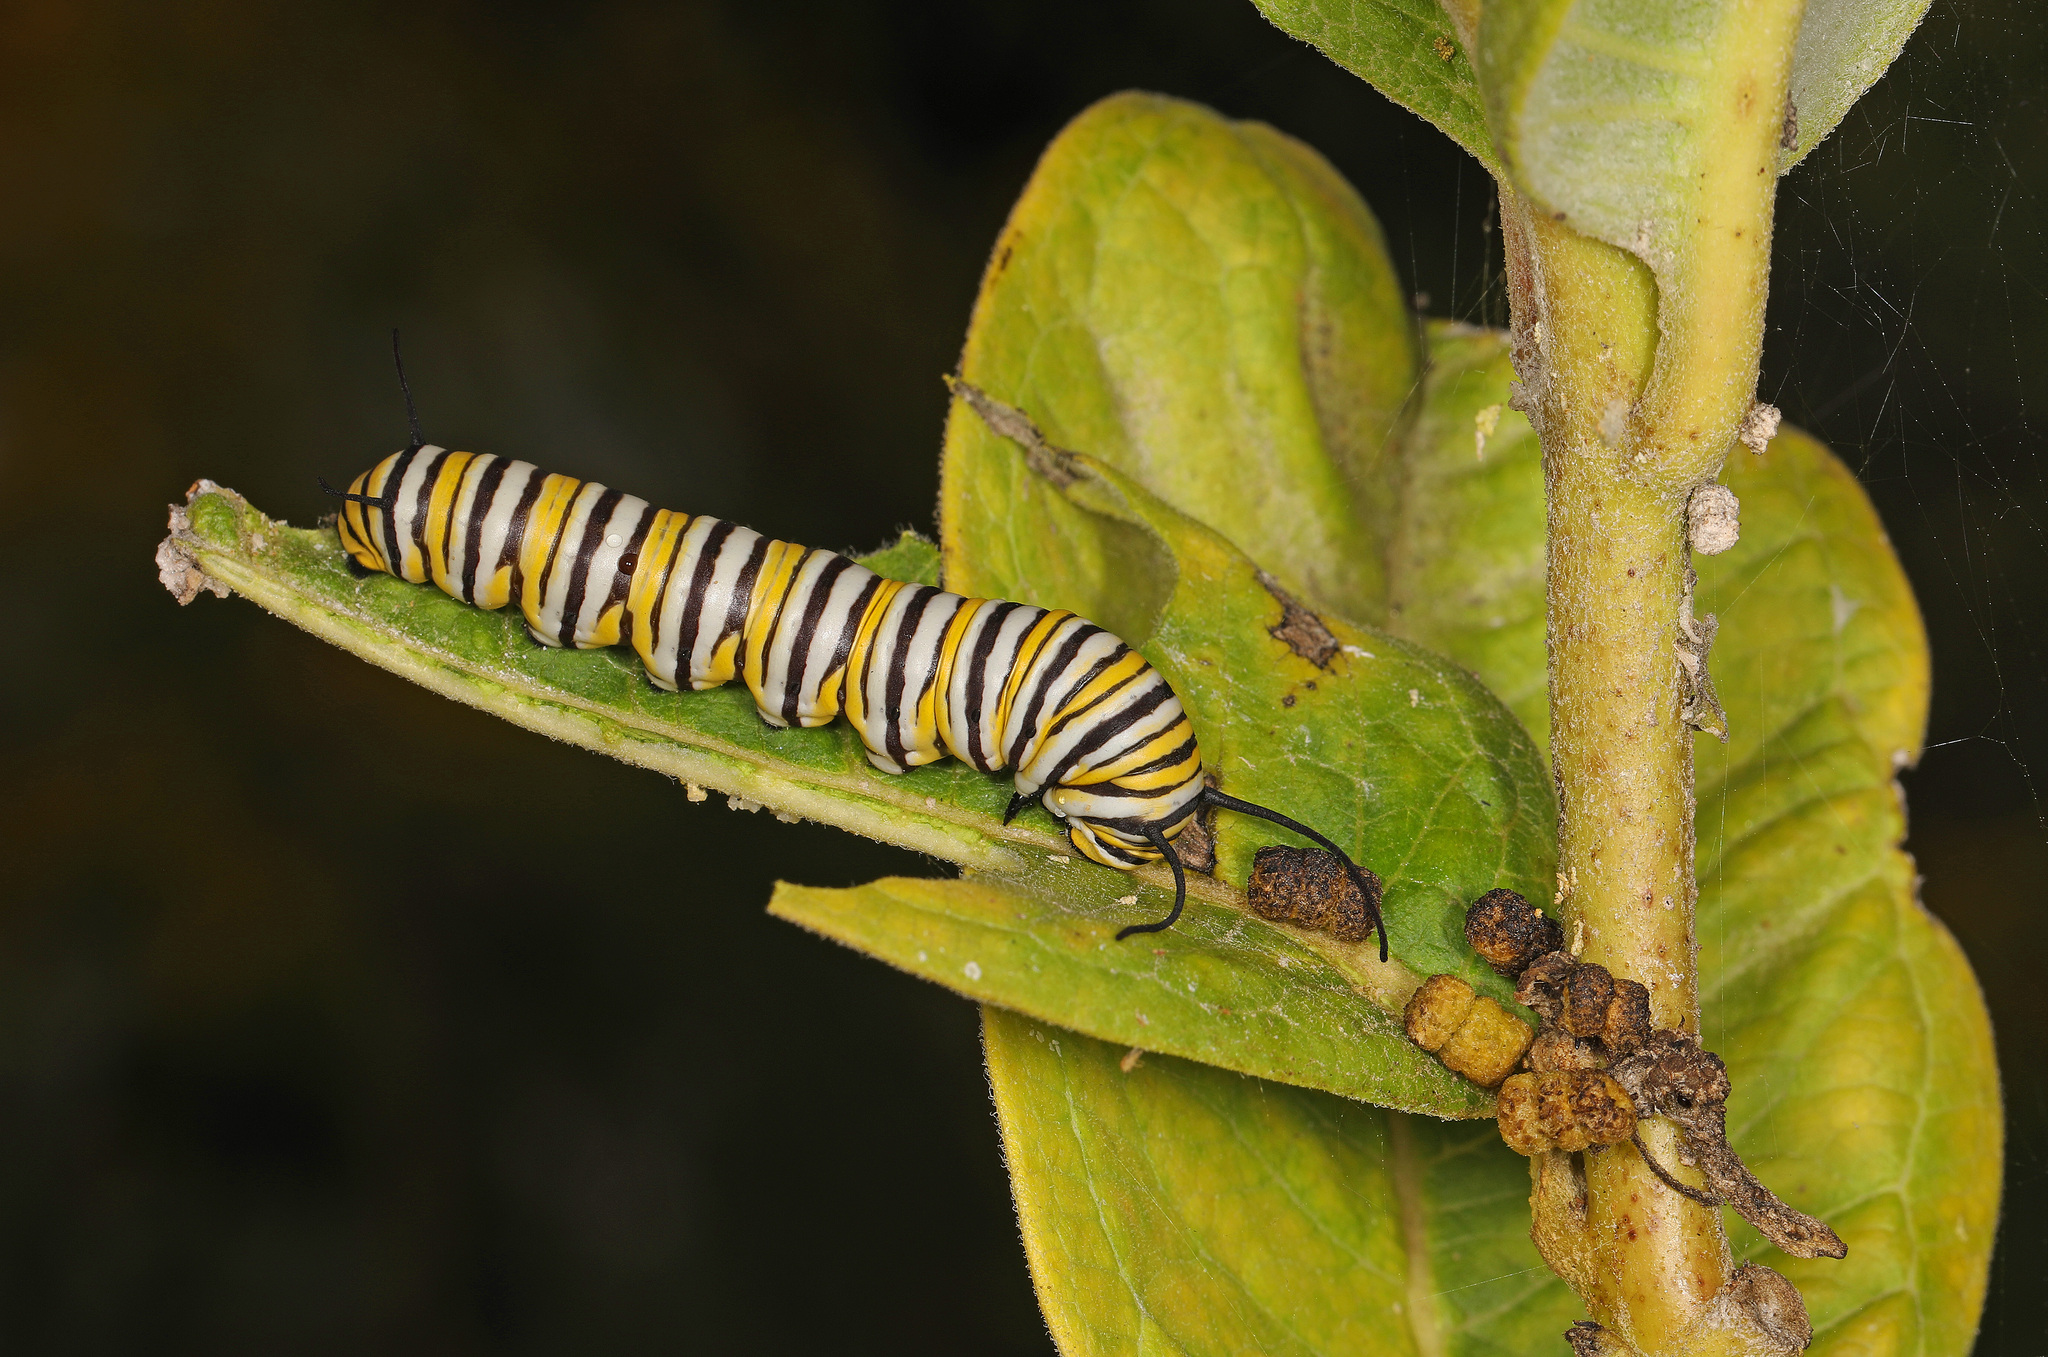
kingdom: Animalia
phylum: Arthropoda
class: Insecta
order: Lepidoptera
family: Nymphalidae
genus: Danaus
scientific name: Danaus plexippus
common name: Monarch
